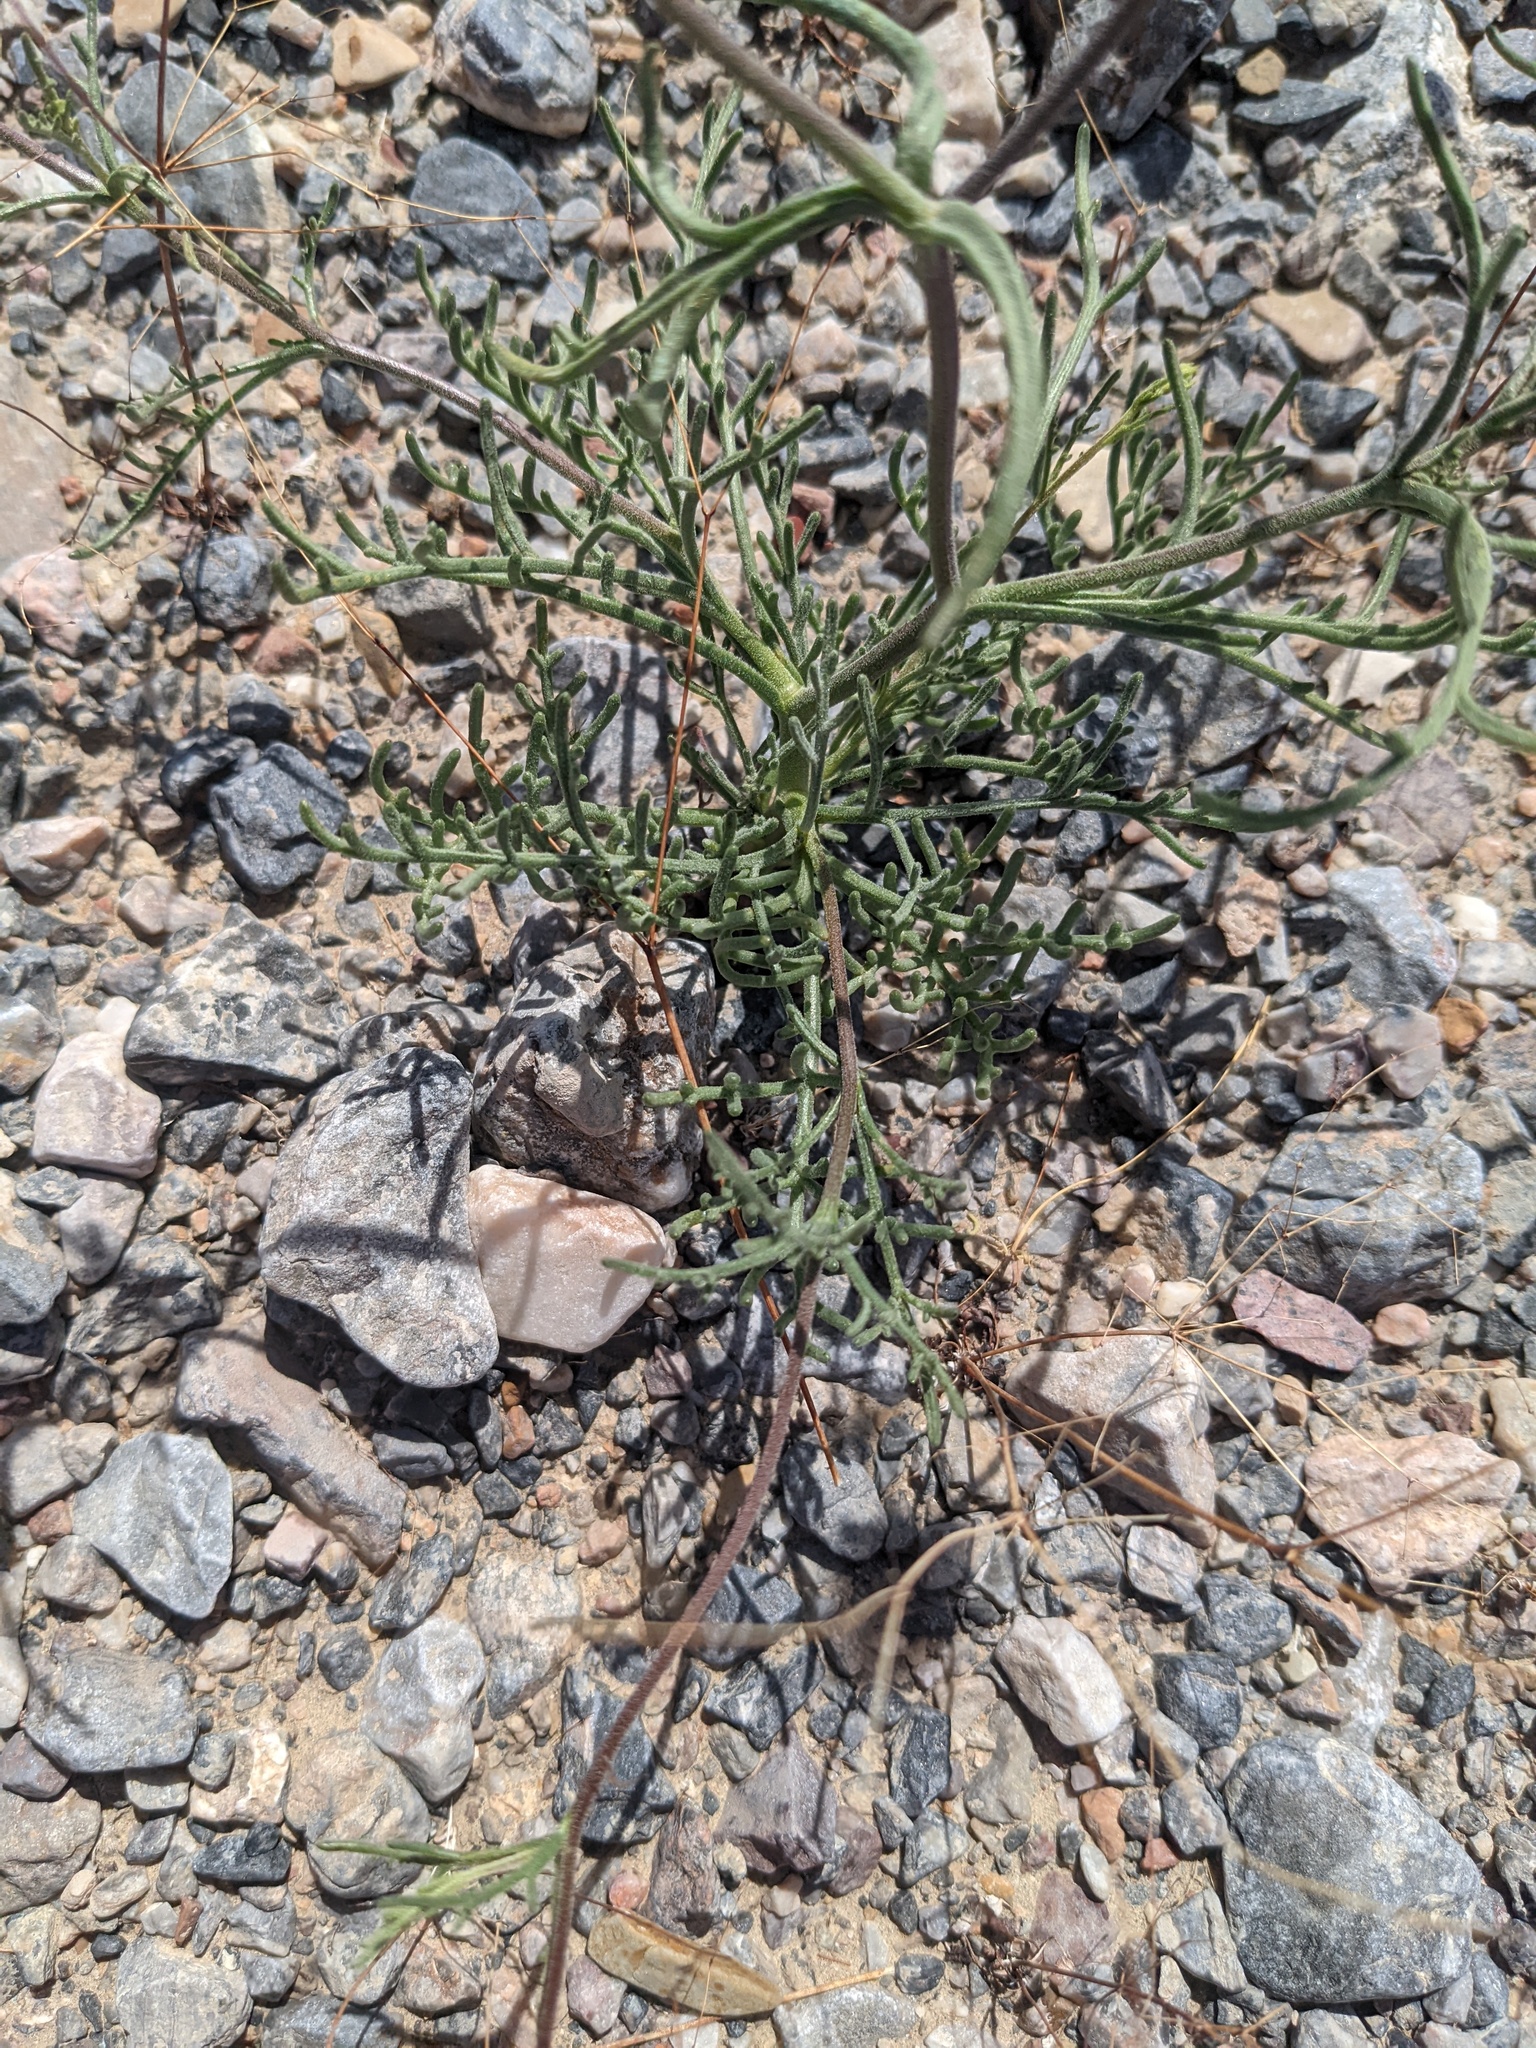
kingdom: Plantae
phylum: Tracheophyta
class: Magnoliopsida
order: Asterales
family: Asteraceae
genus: Chaenactis
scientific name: Chaenactis carphoclinia
